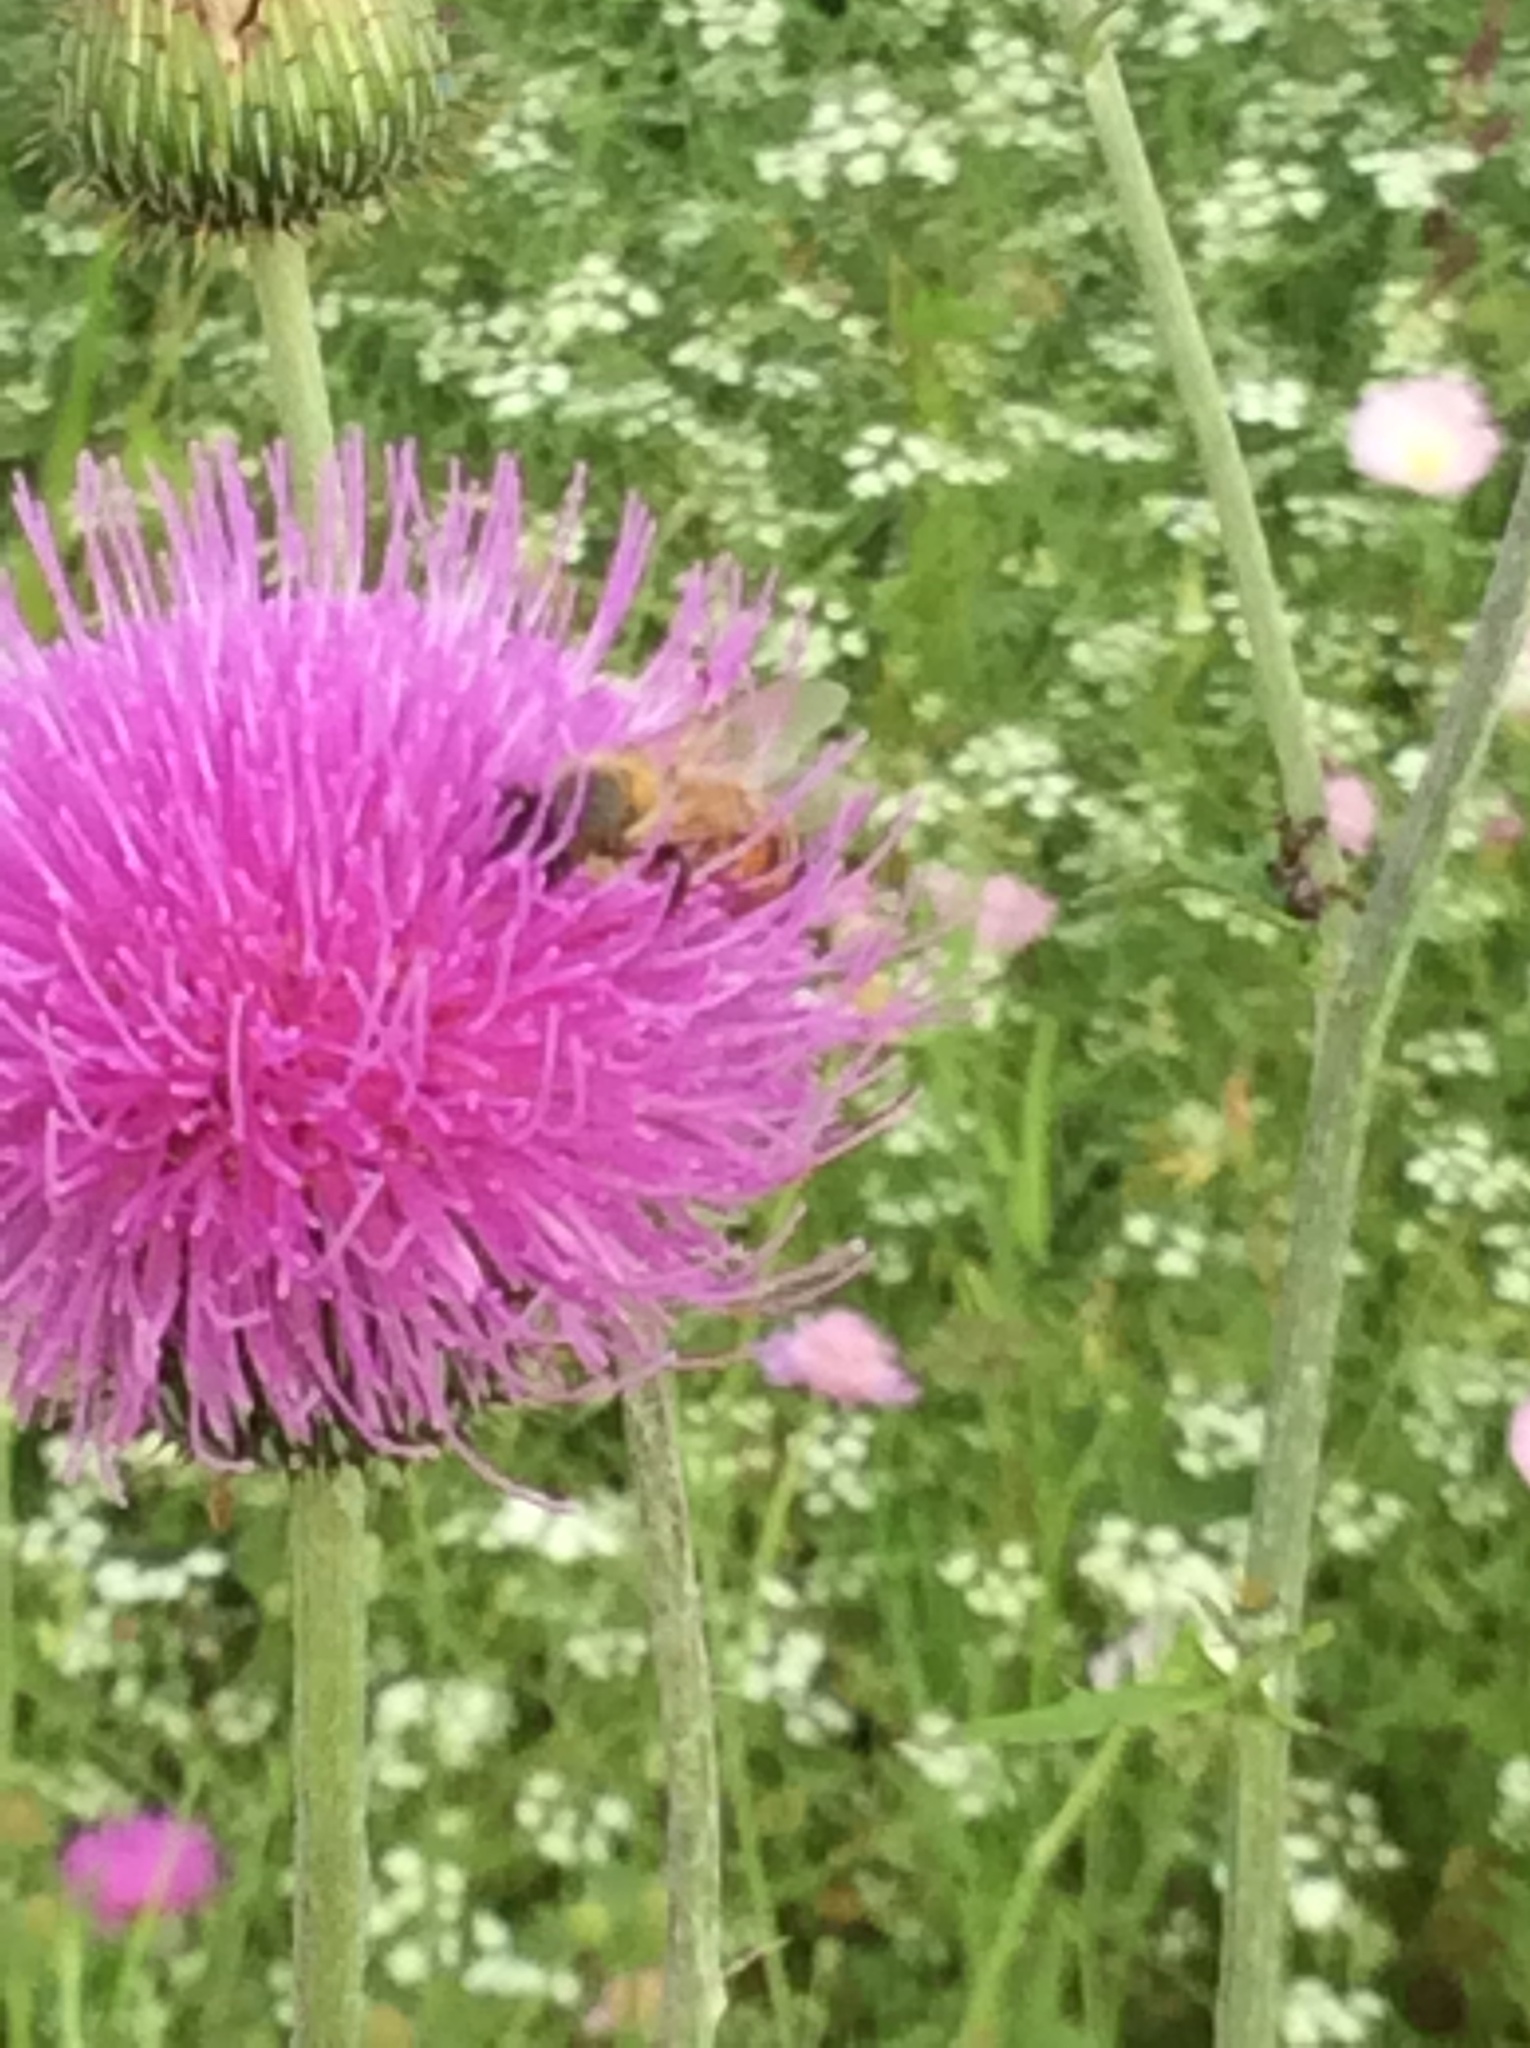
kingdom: Animalia
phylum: Arthropoda
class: Insecta
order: Hymenoptera
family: Apidae
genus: Apis
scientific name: Apis mellifera
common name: Honey bee
